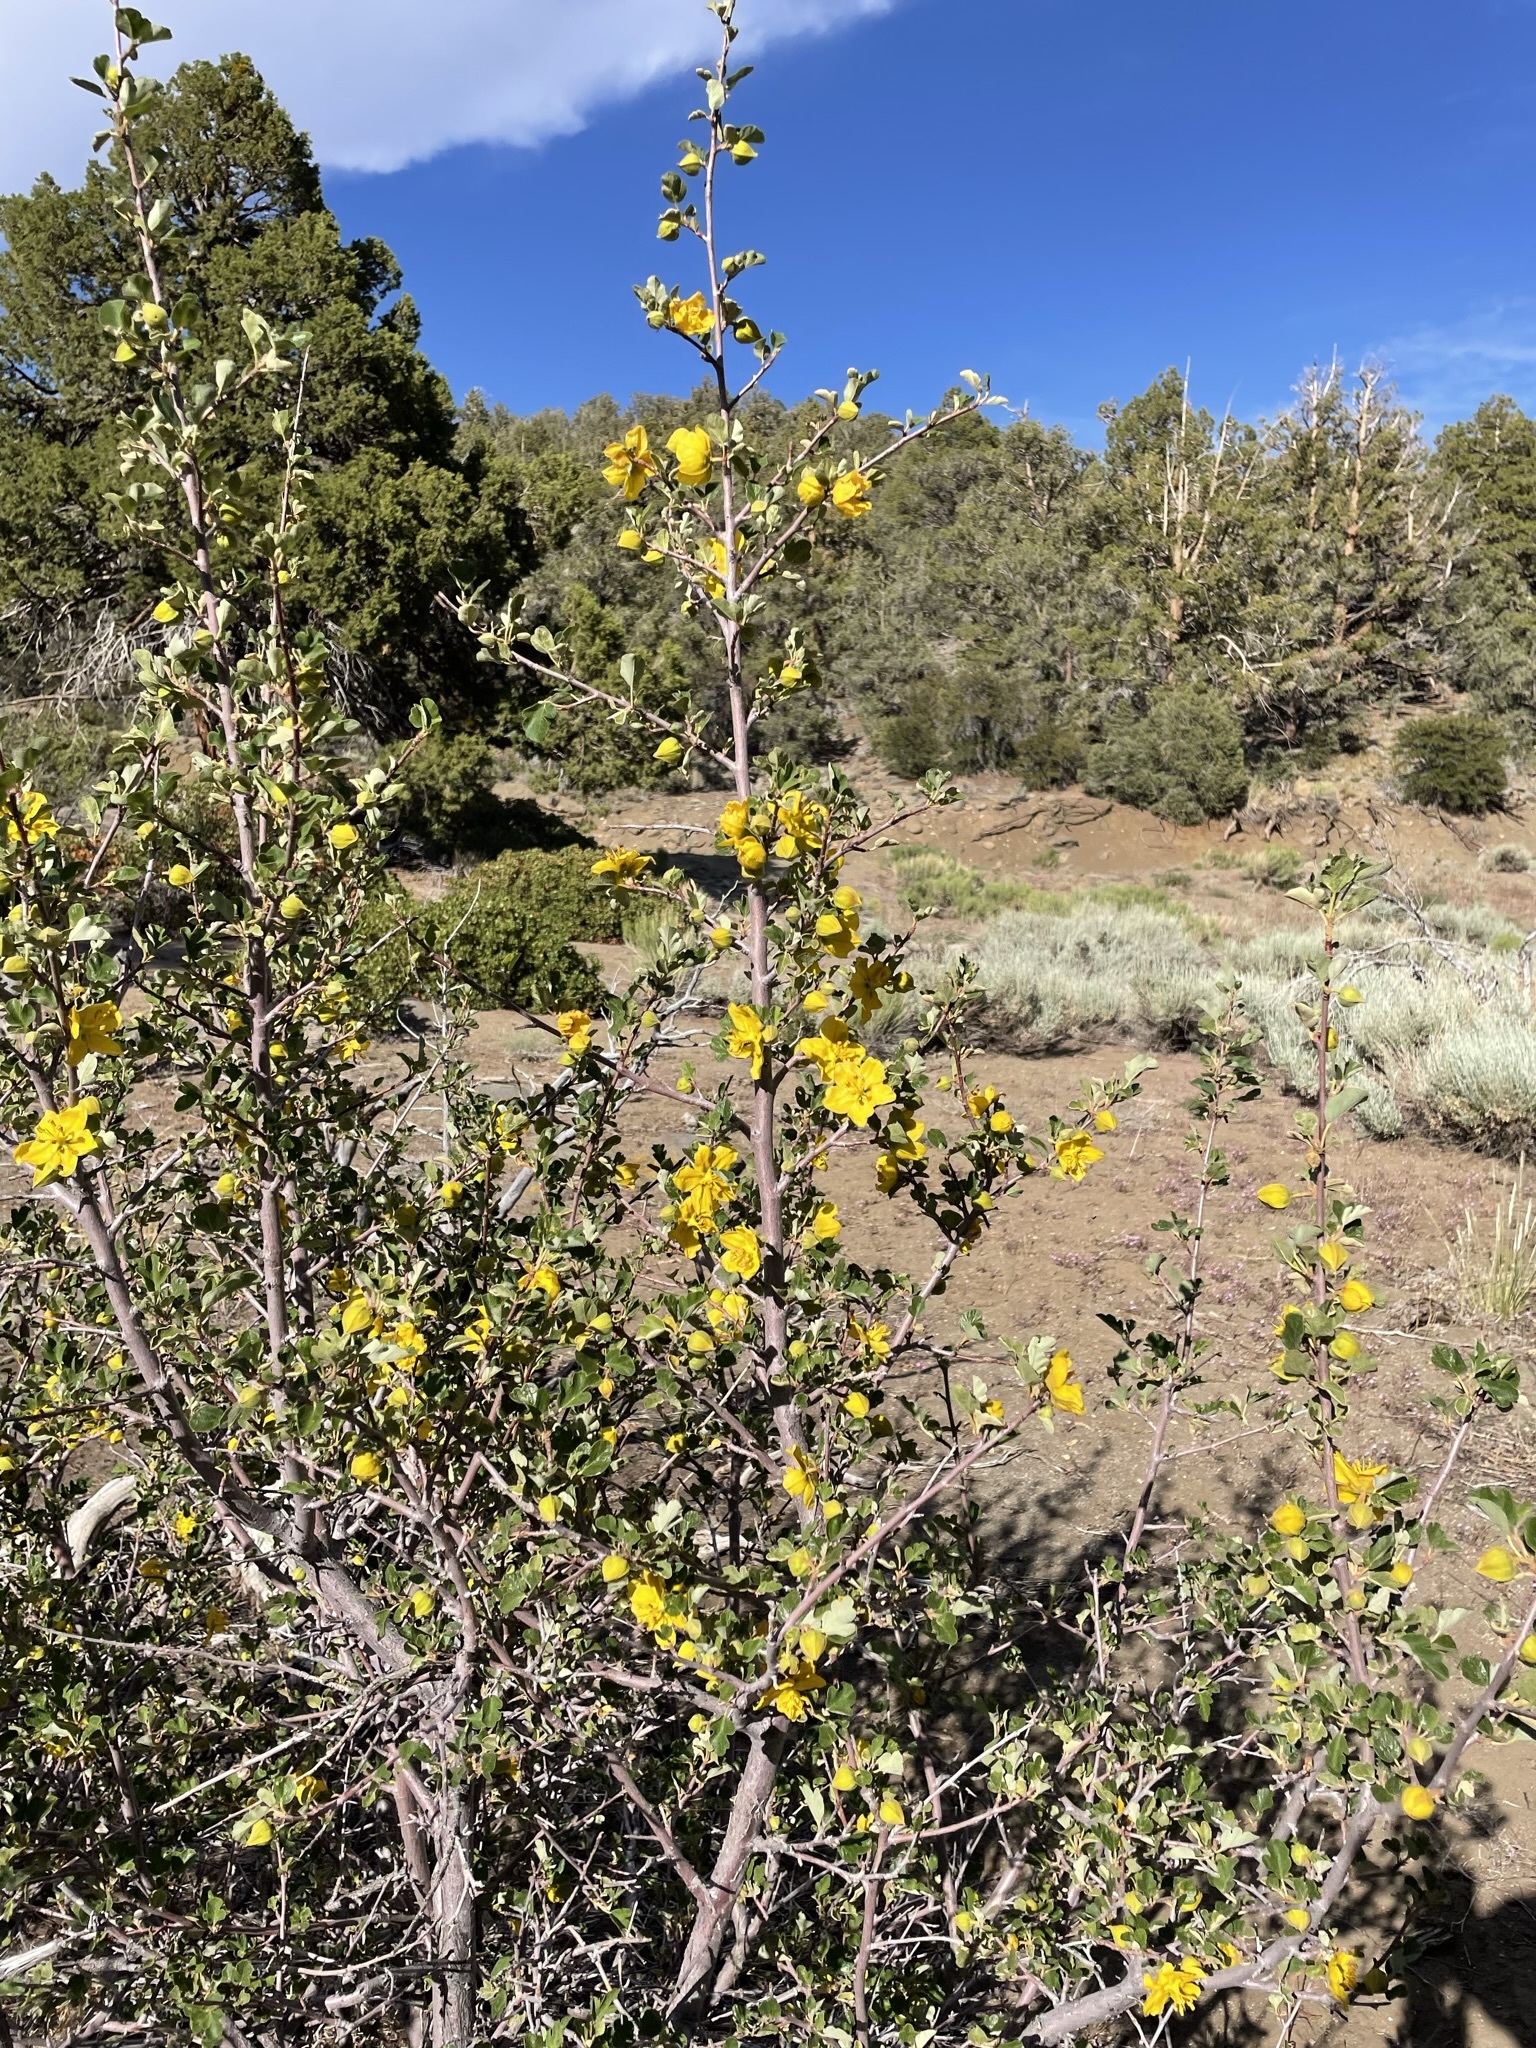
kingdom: Plantae
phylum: Tracheophyta
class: Magnoliopsida
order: Malvales
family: Malvaceae
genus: Fremontodendron
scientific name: Fremontodendron californicum
